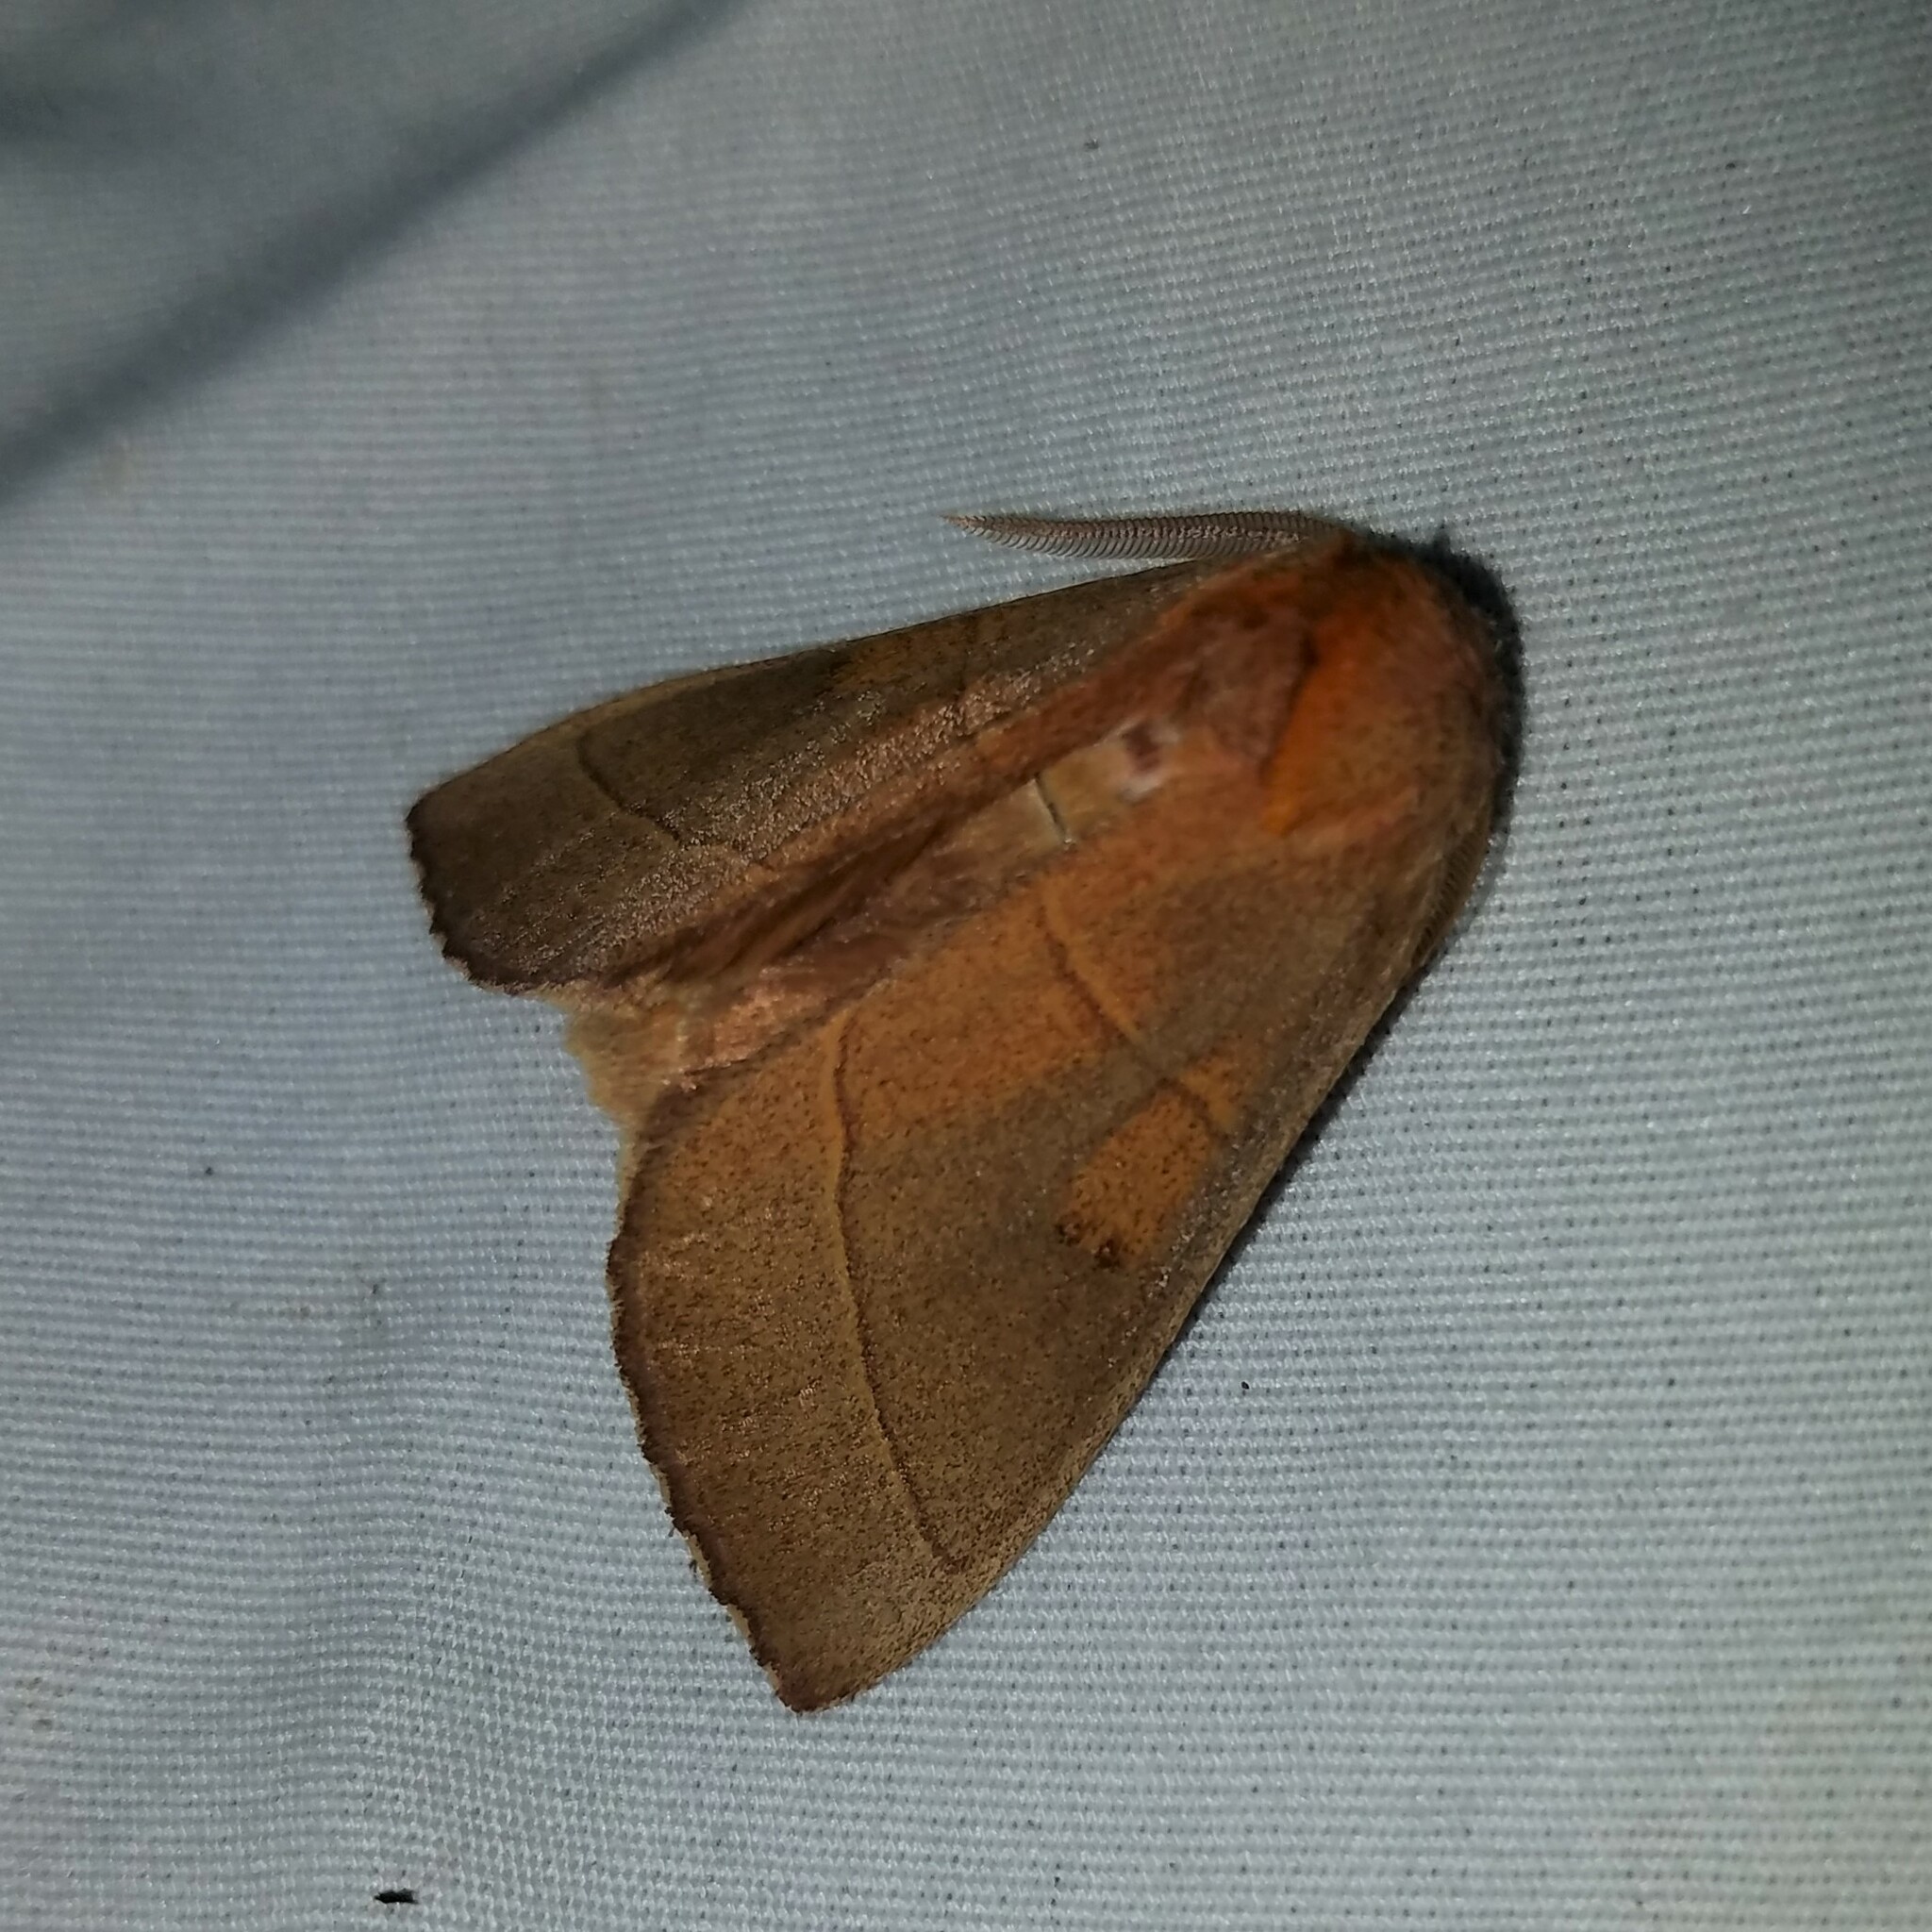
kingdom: Animalia
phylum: Arthropoda
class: Insecta
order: Lepidoptera
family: Notodontidae
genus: Nadata
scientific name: Nadata gibbosa
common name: White-dotted prominent
